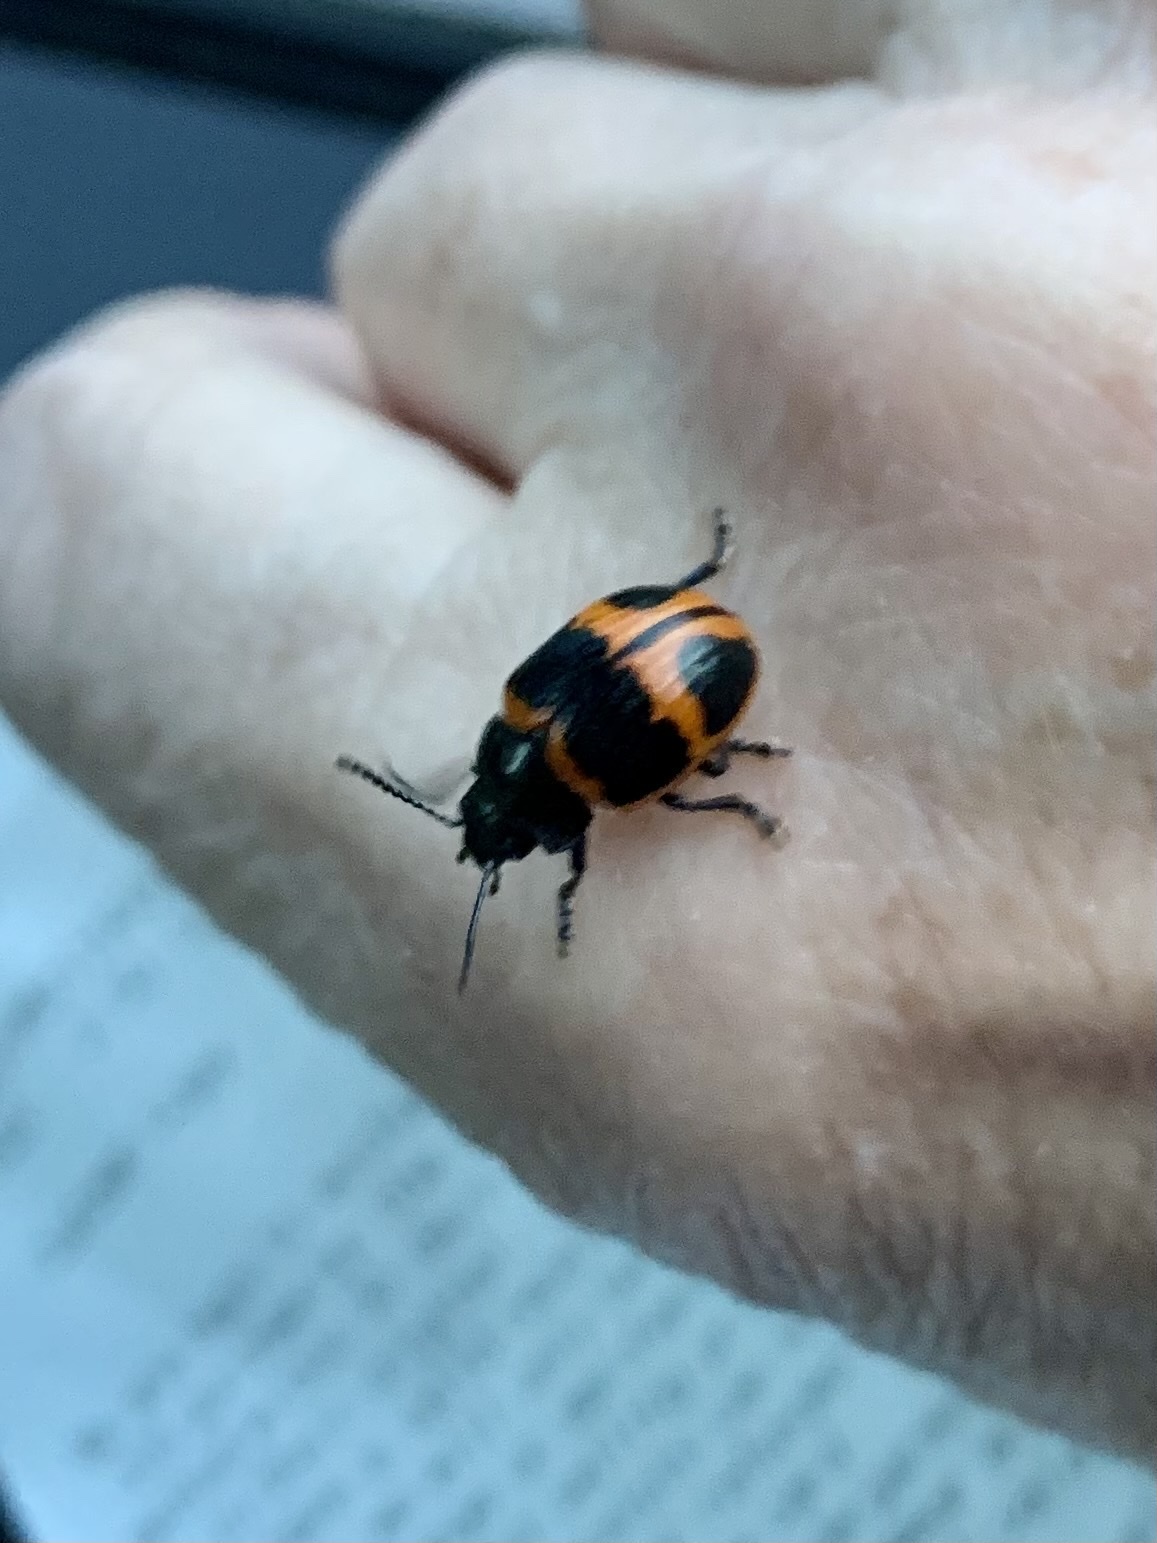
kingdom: Animalia
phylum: Arthropoda
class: Insecta
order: Coleoptera
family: Chrysomelidae
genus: Labidomera
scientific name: Labidomera clivicollis
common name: Swamp milkweed leaf beetle
